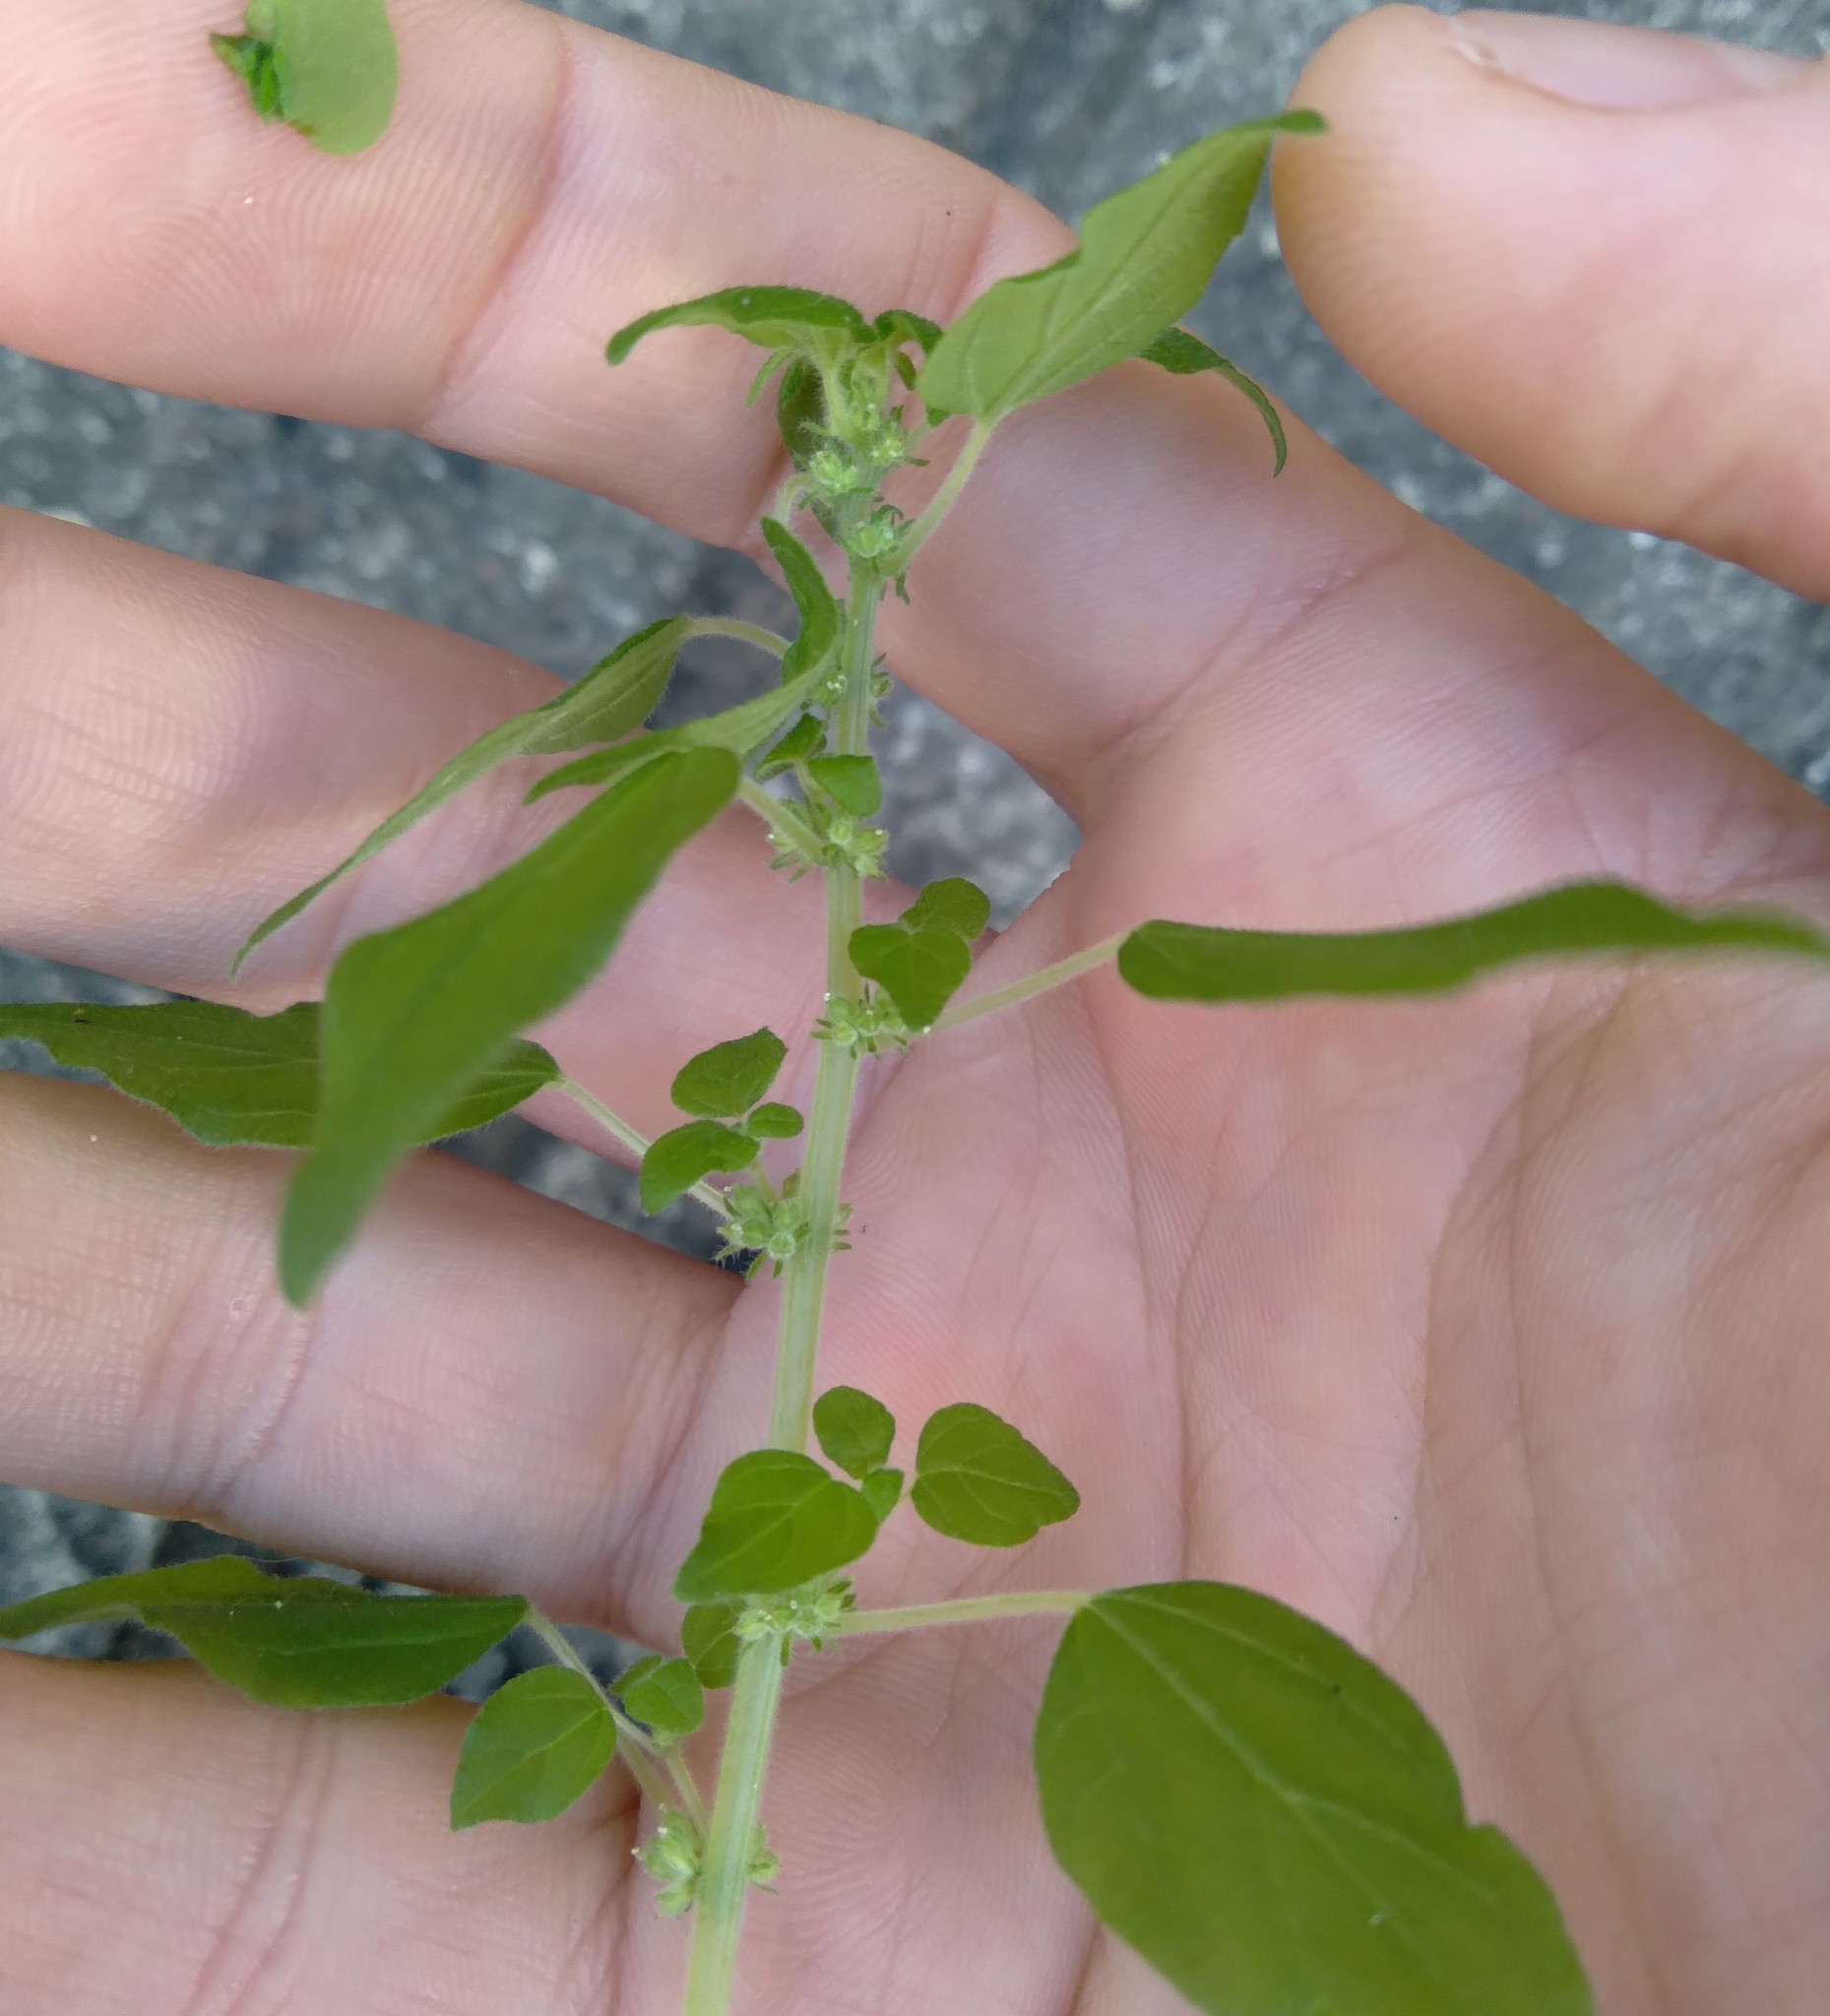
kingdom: Plantae
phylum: Tracheophyta
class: Magnoliopsida
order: Rosales
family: Urticaceae
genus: Parietaria
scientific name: Parietaria debilis
